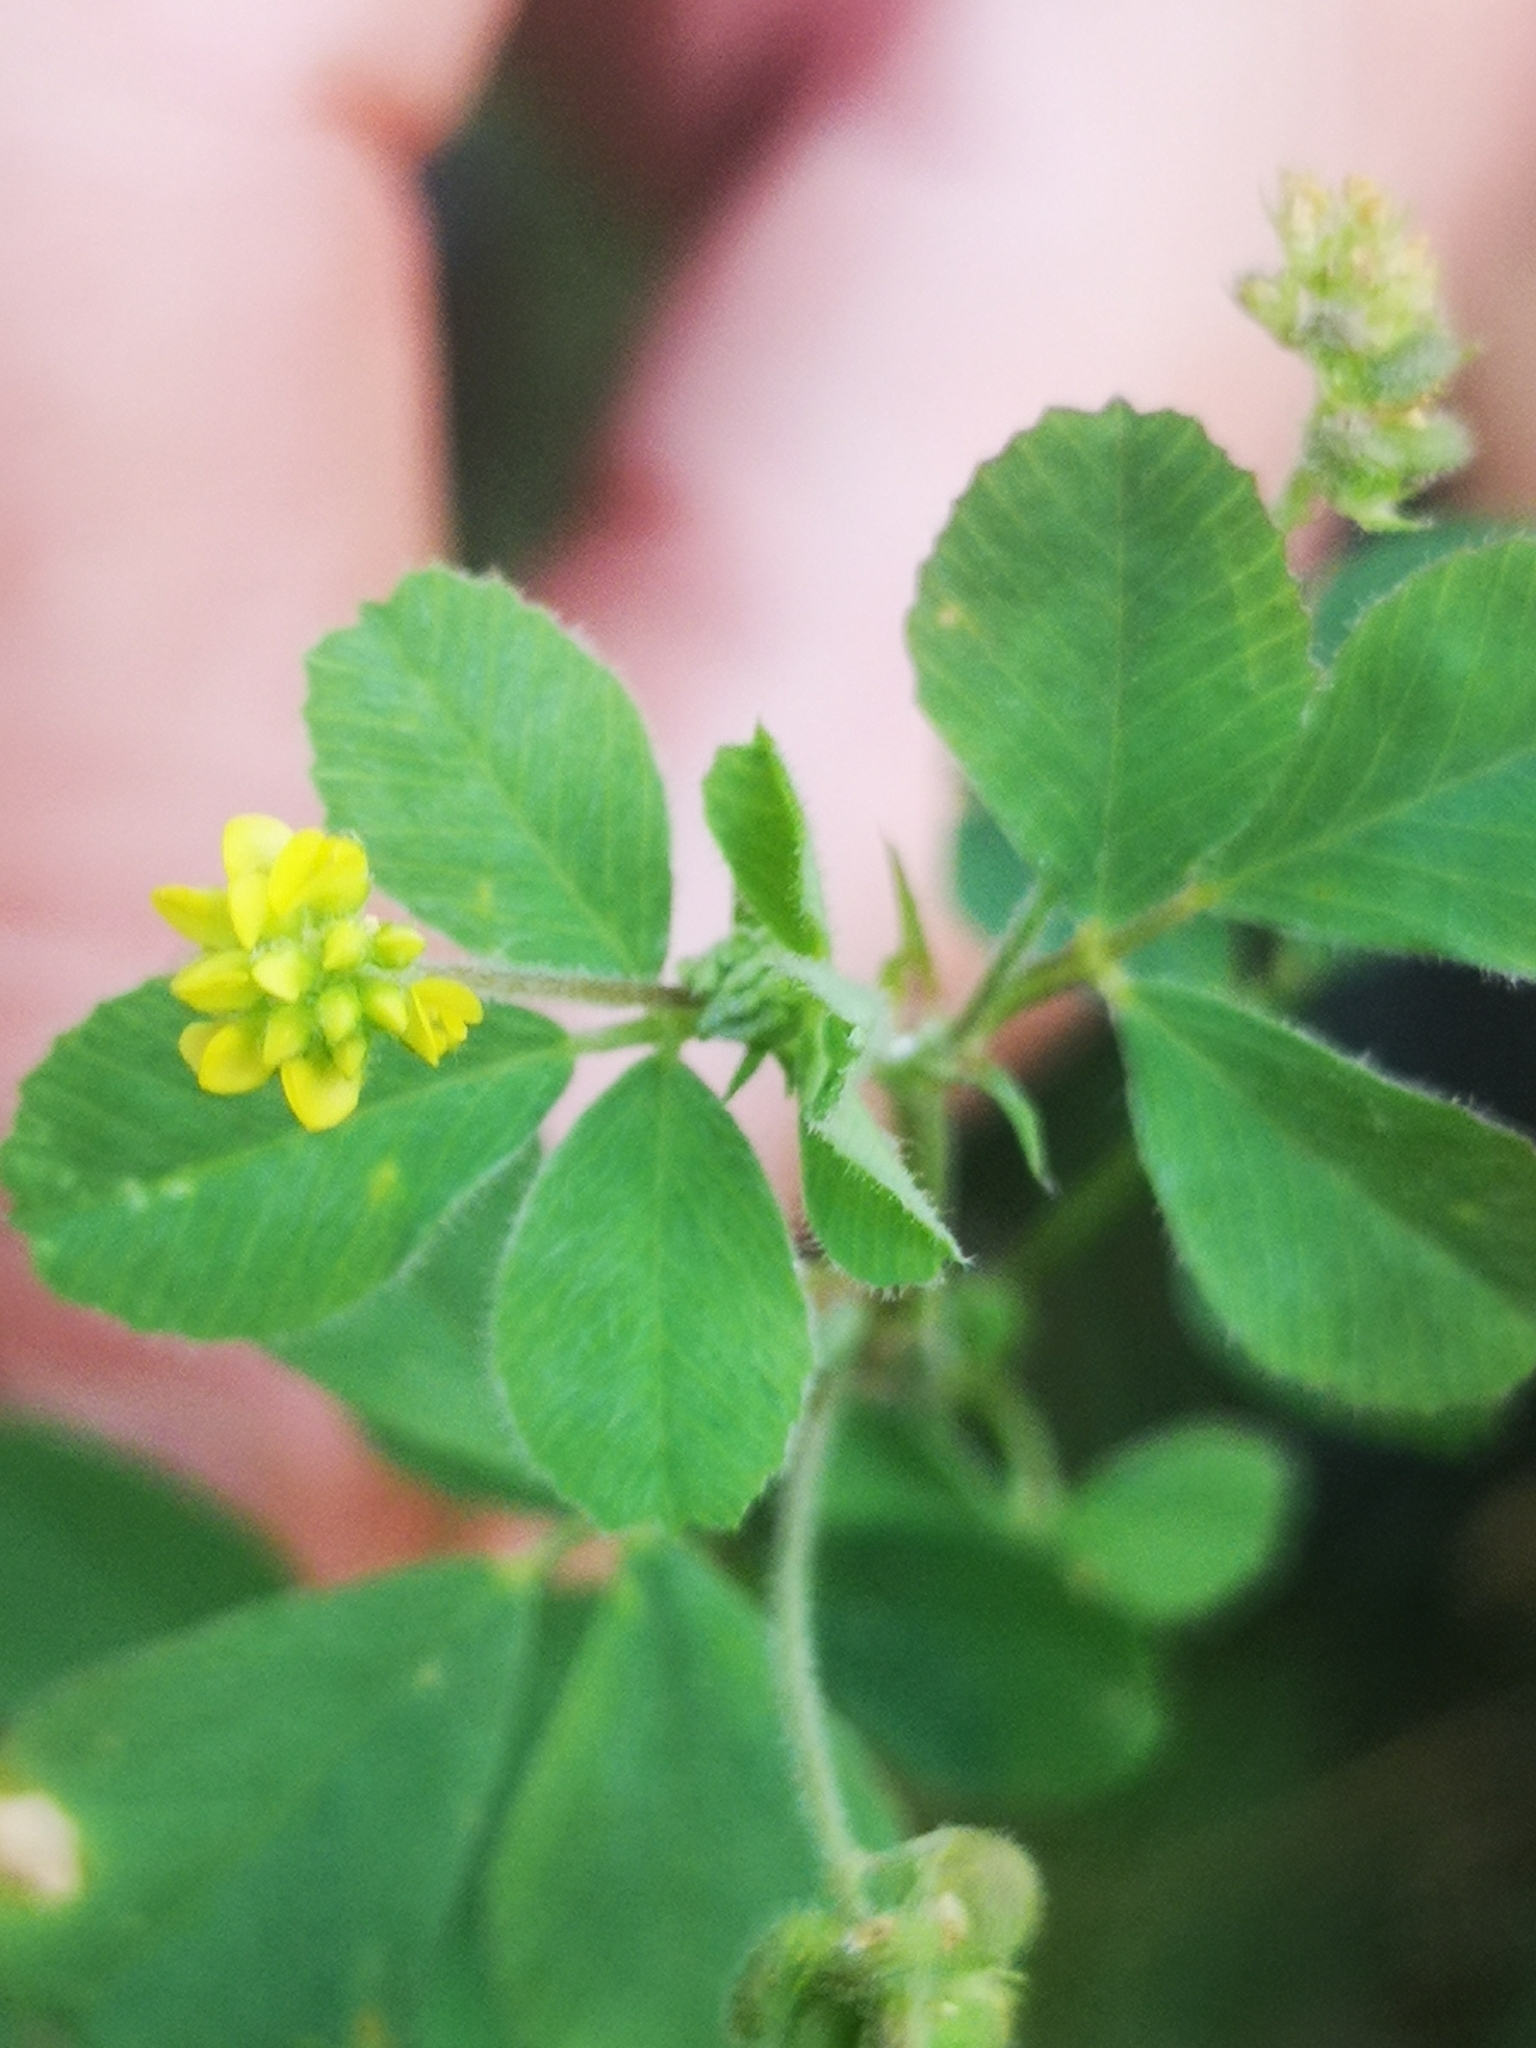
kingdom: Plantae
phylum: Tracheophyta
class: Magnoliopsida
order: Fabales
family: Fabaceae
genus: Medicago
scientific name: Medicago lupulina
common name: Black medick
